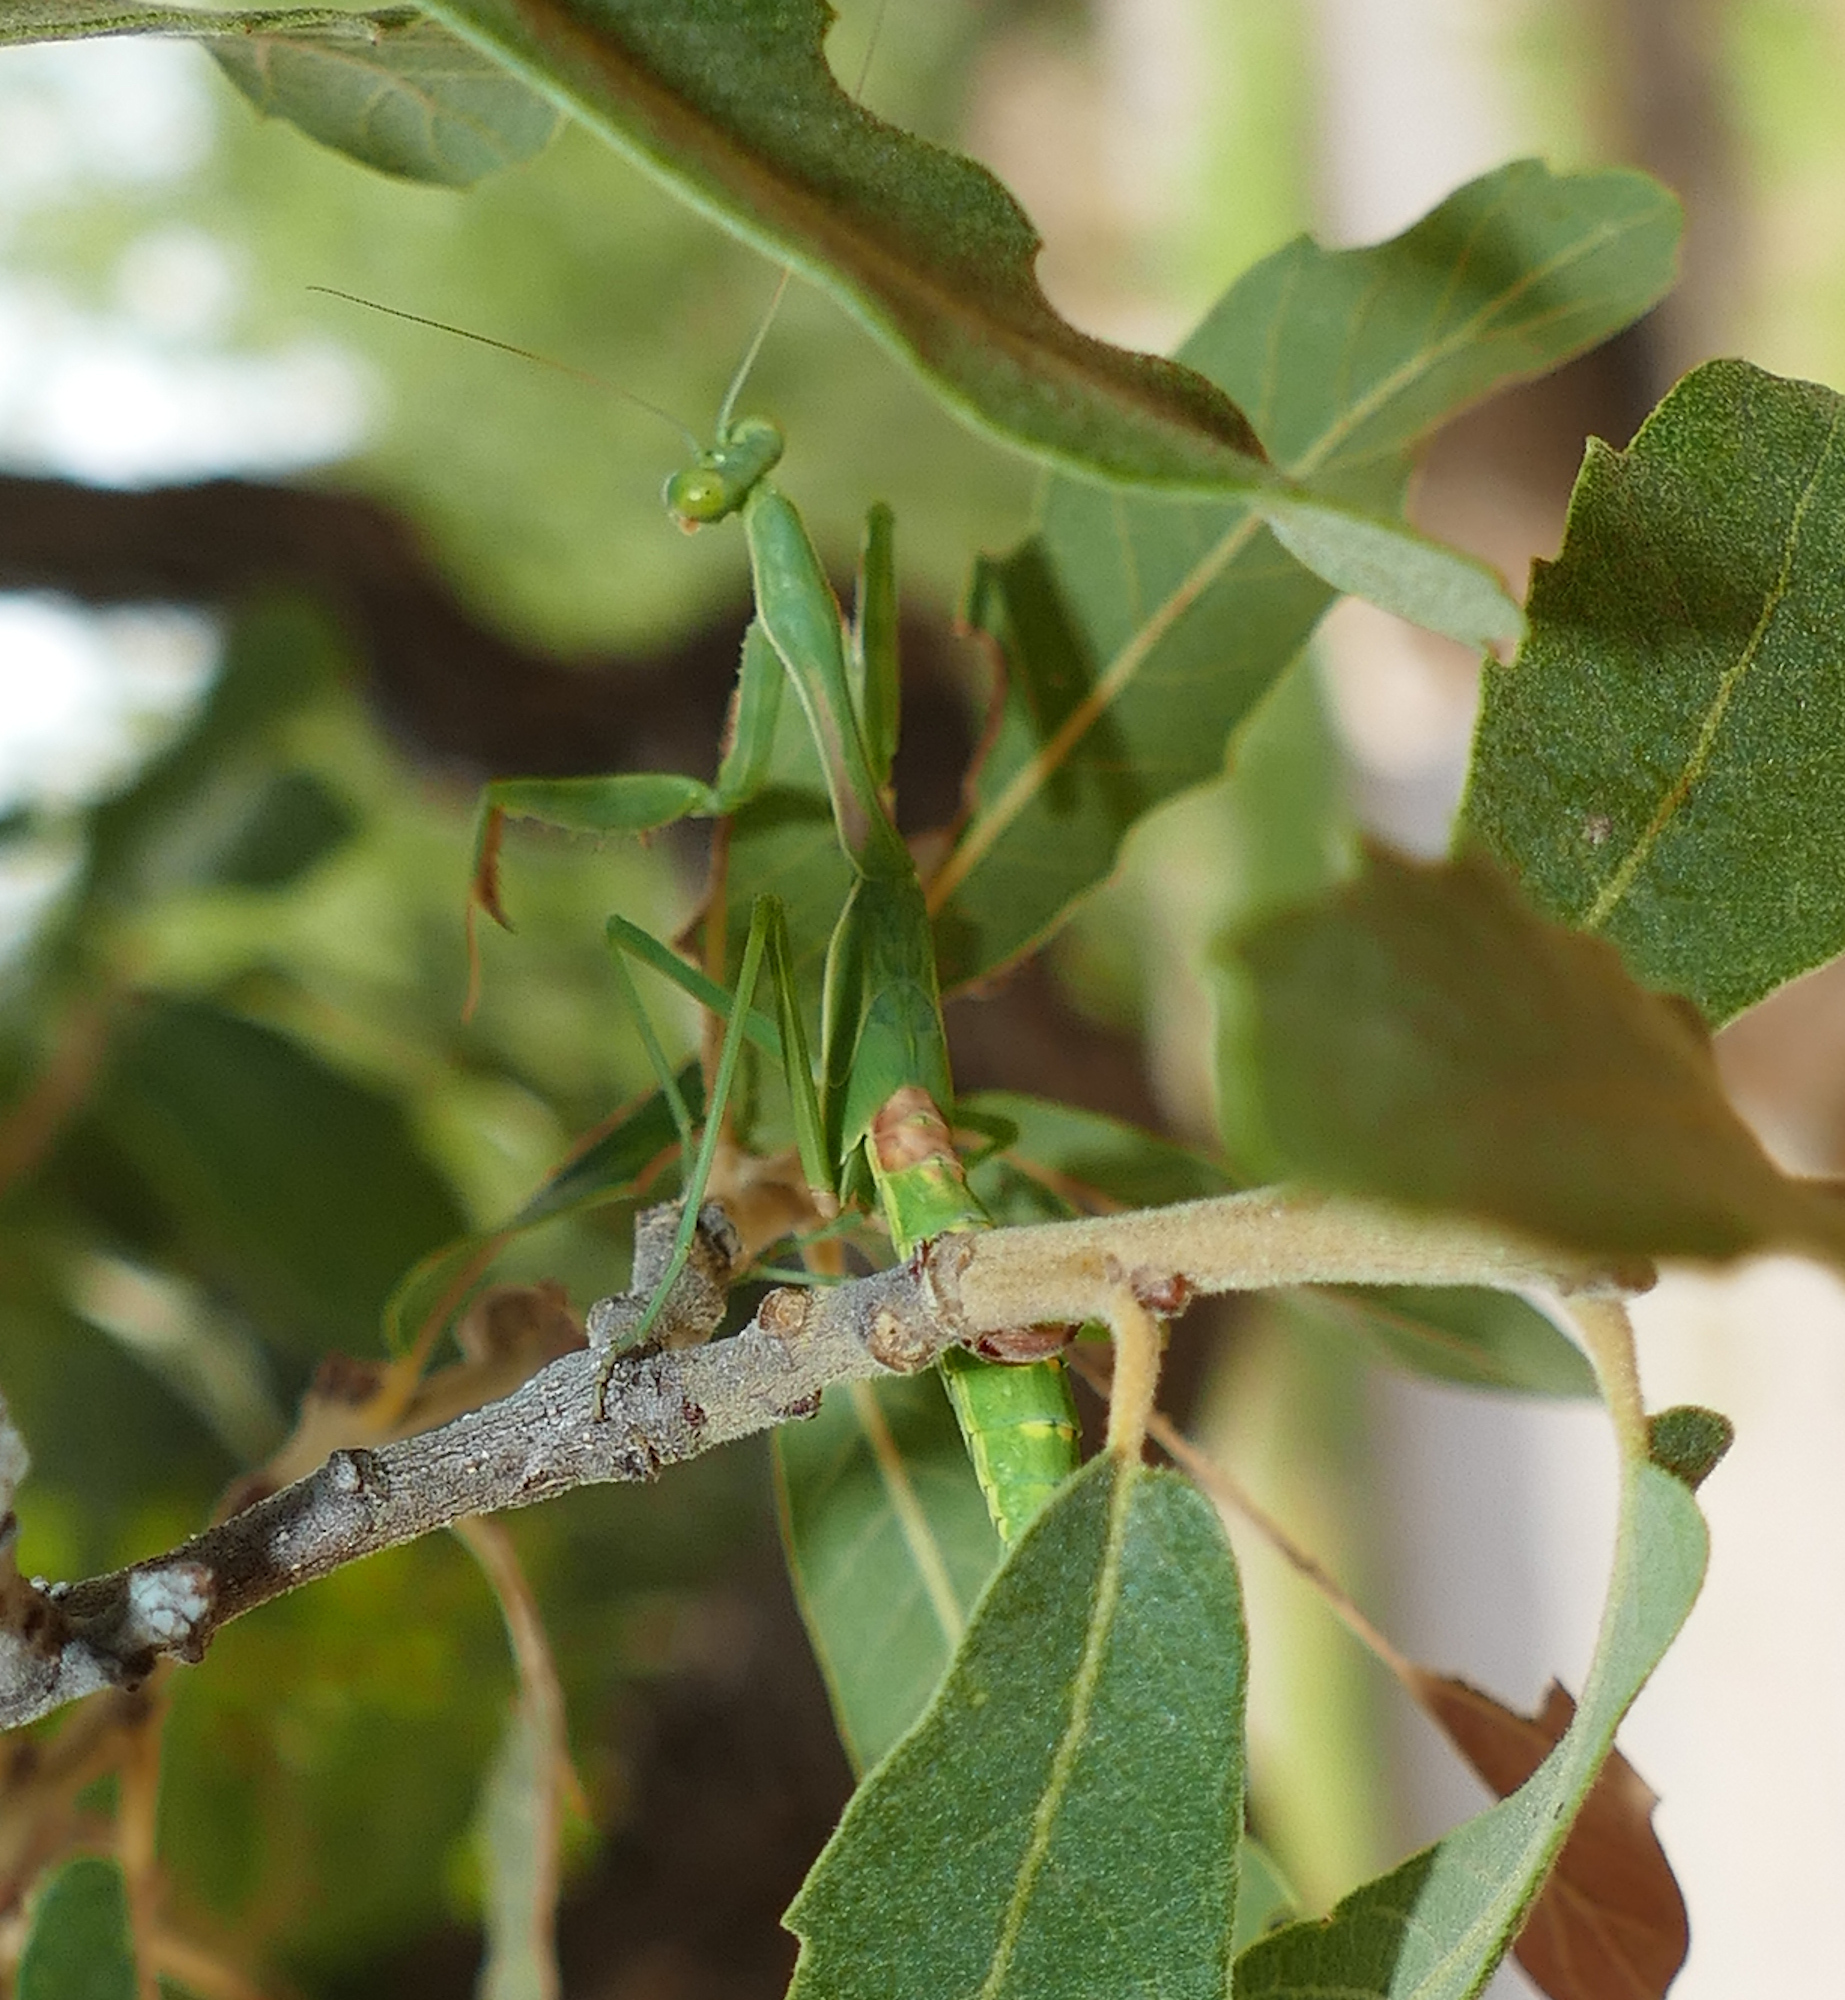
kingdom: Animalia
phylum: Arthropoda
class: Insecta
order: Mantodea
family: Mantidae
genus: Stagmomantis
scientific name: Stagmomantis limbata
